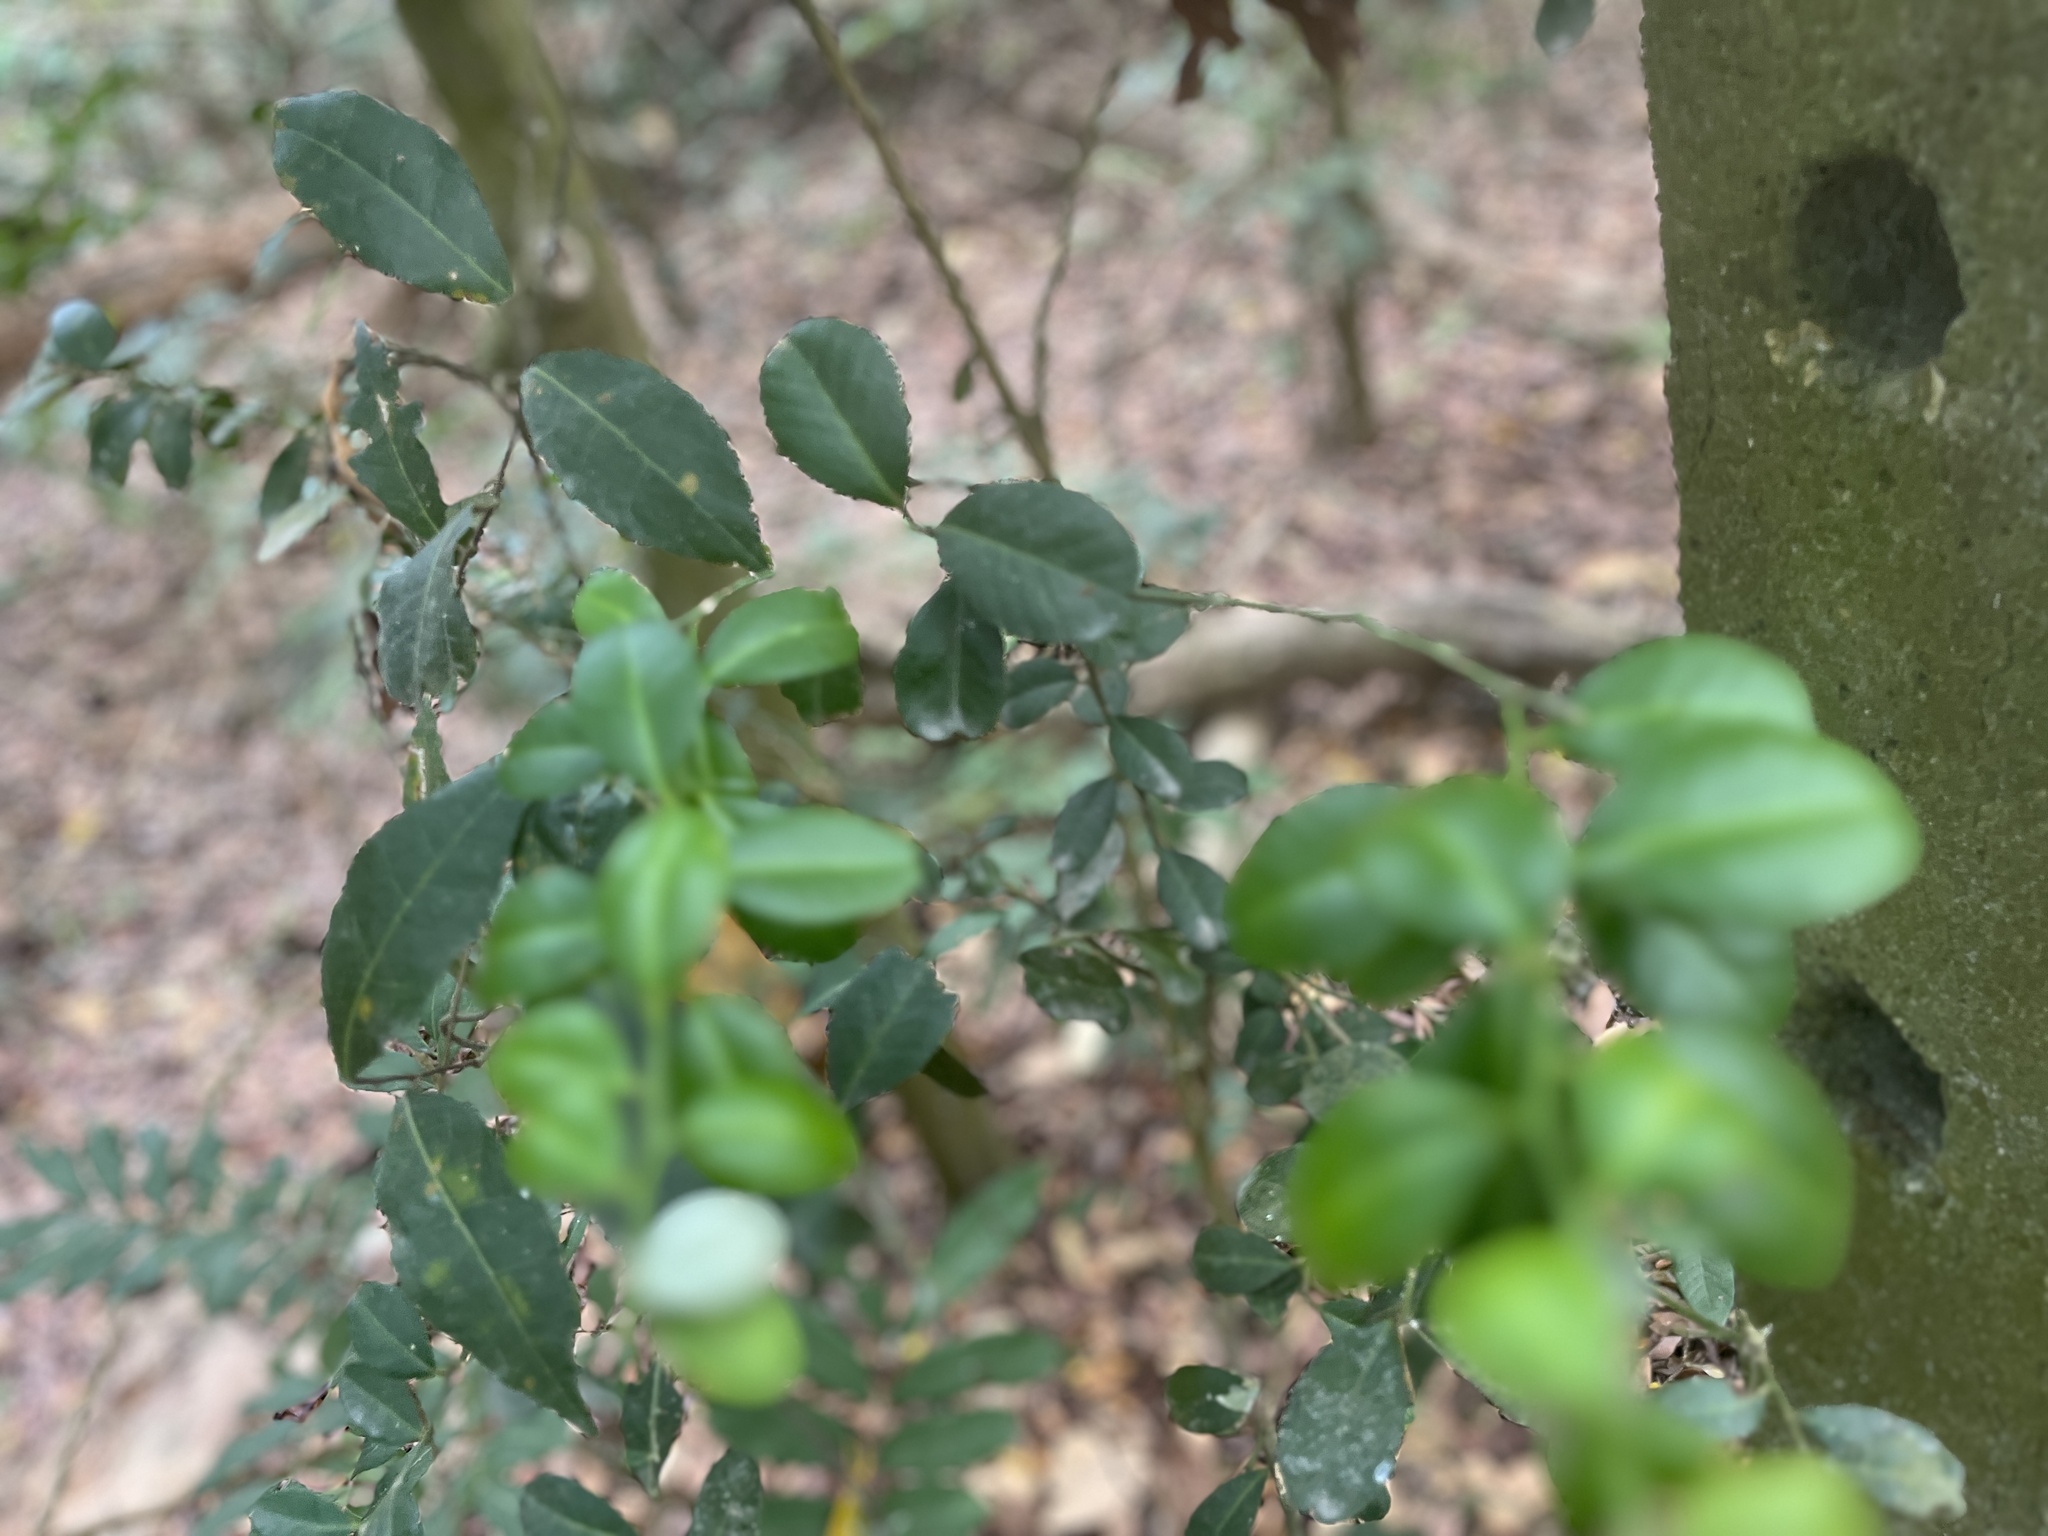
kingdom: Plantae
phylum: Tracheophyta
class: Magnoliopsida
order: Sapindales
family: Rutaceae
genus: Atalantia
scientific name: Atalantia buxifolia
